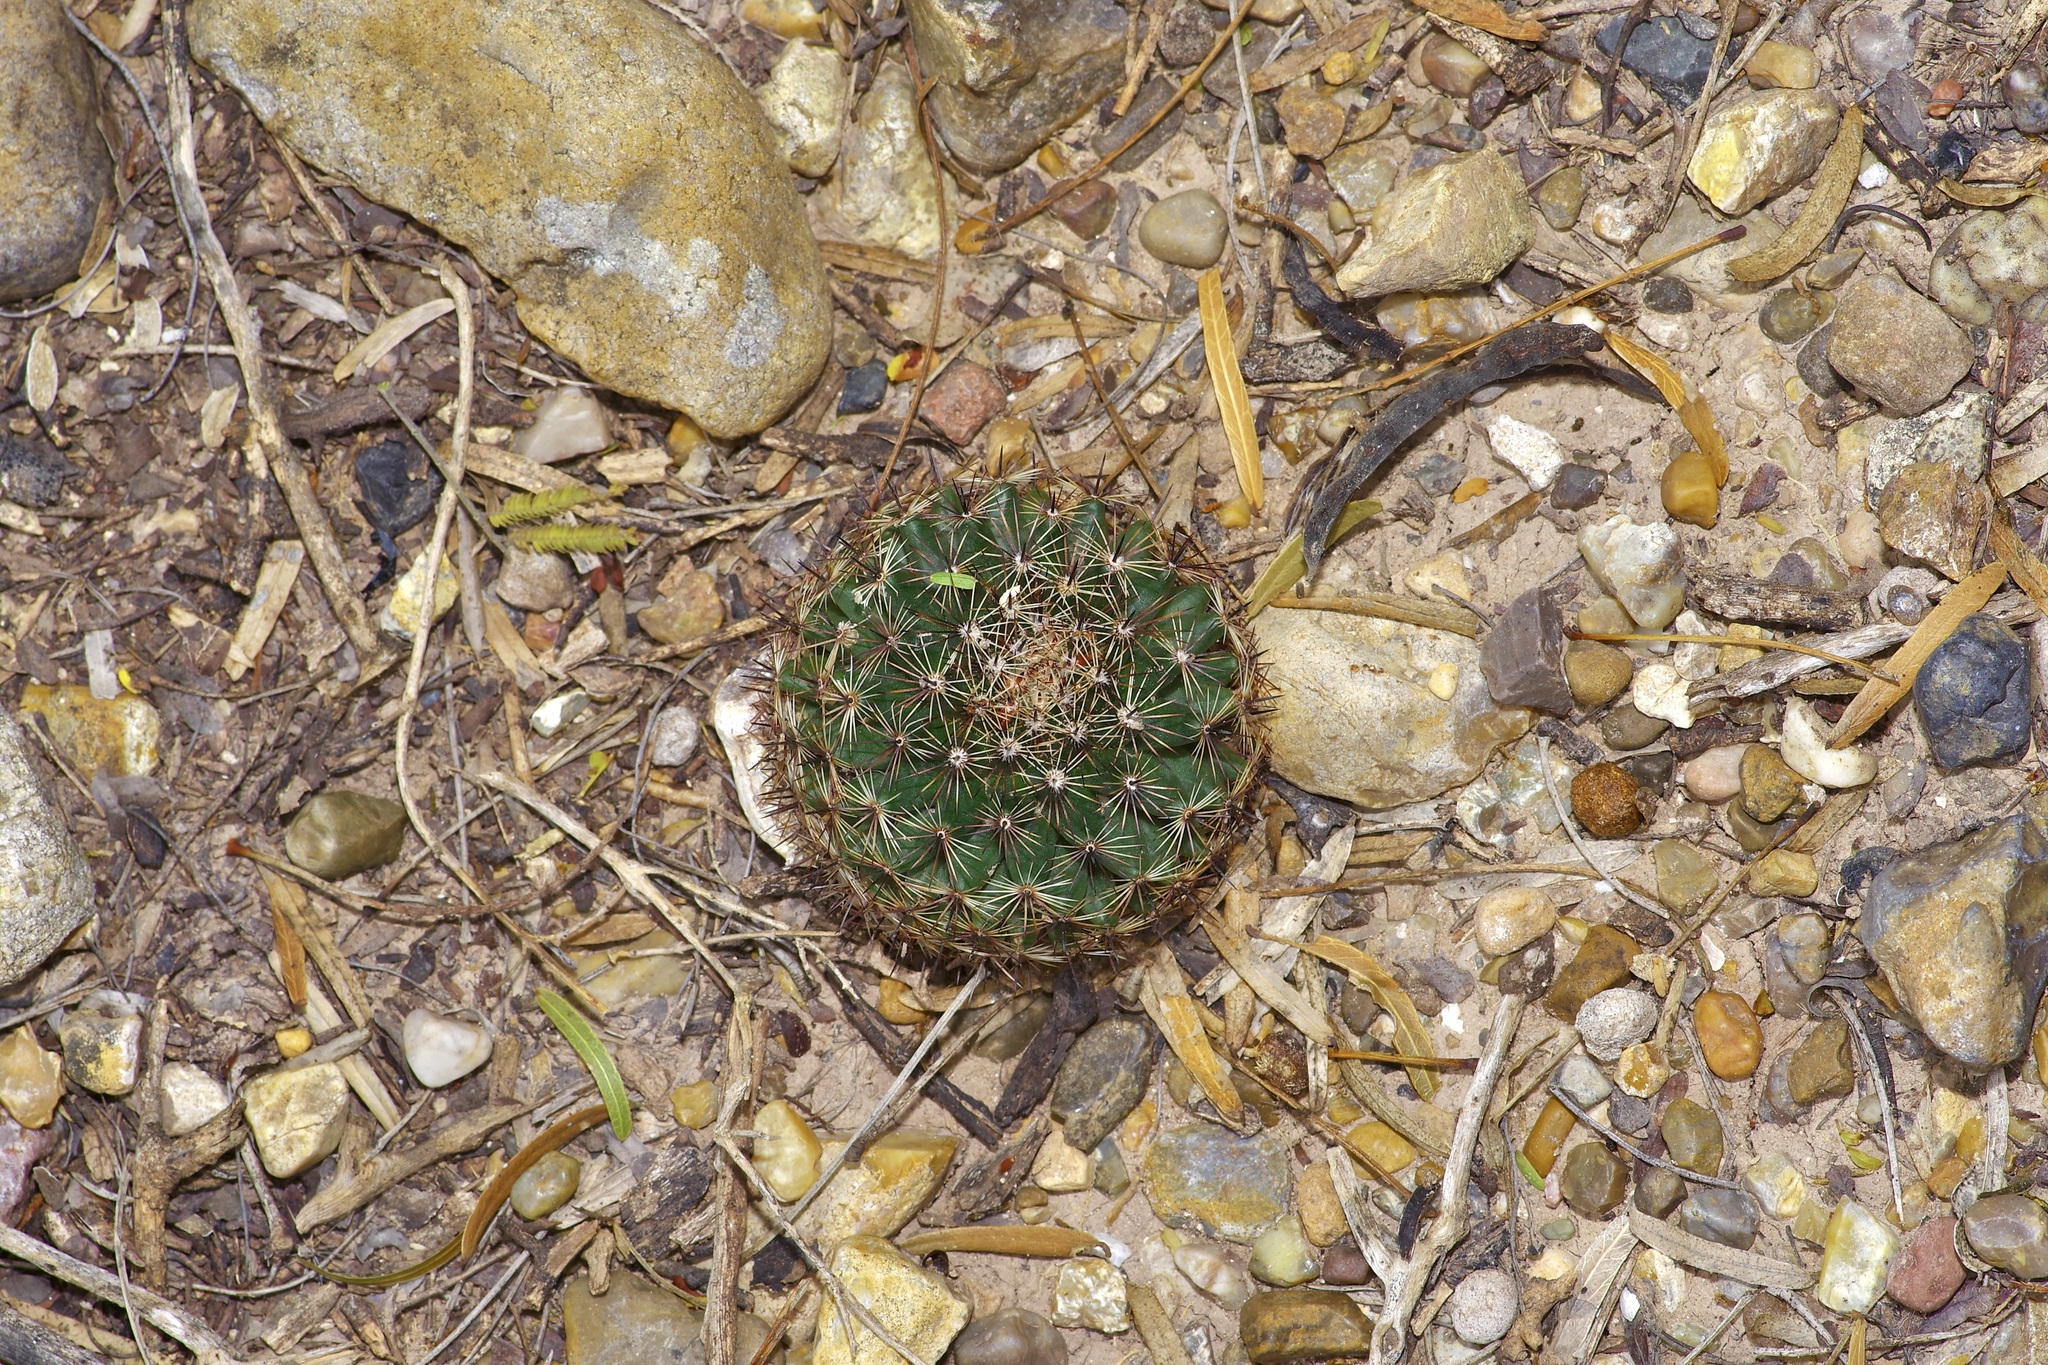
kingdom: Plantae
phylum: Tracheophyta
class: Magnoliopsida
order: Caryophyllales
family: Cactaceae
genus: Mammillaria
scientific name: Mammillaria heyderi
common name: Little nipple cactus
